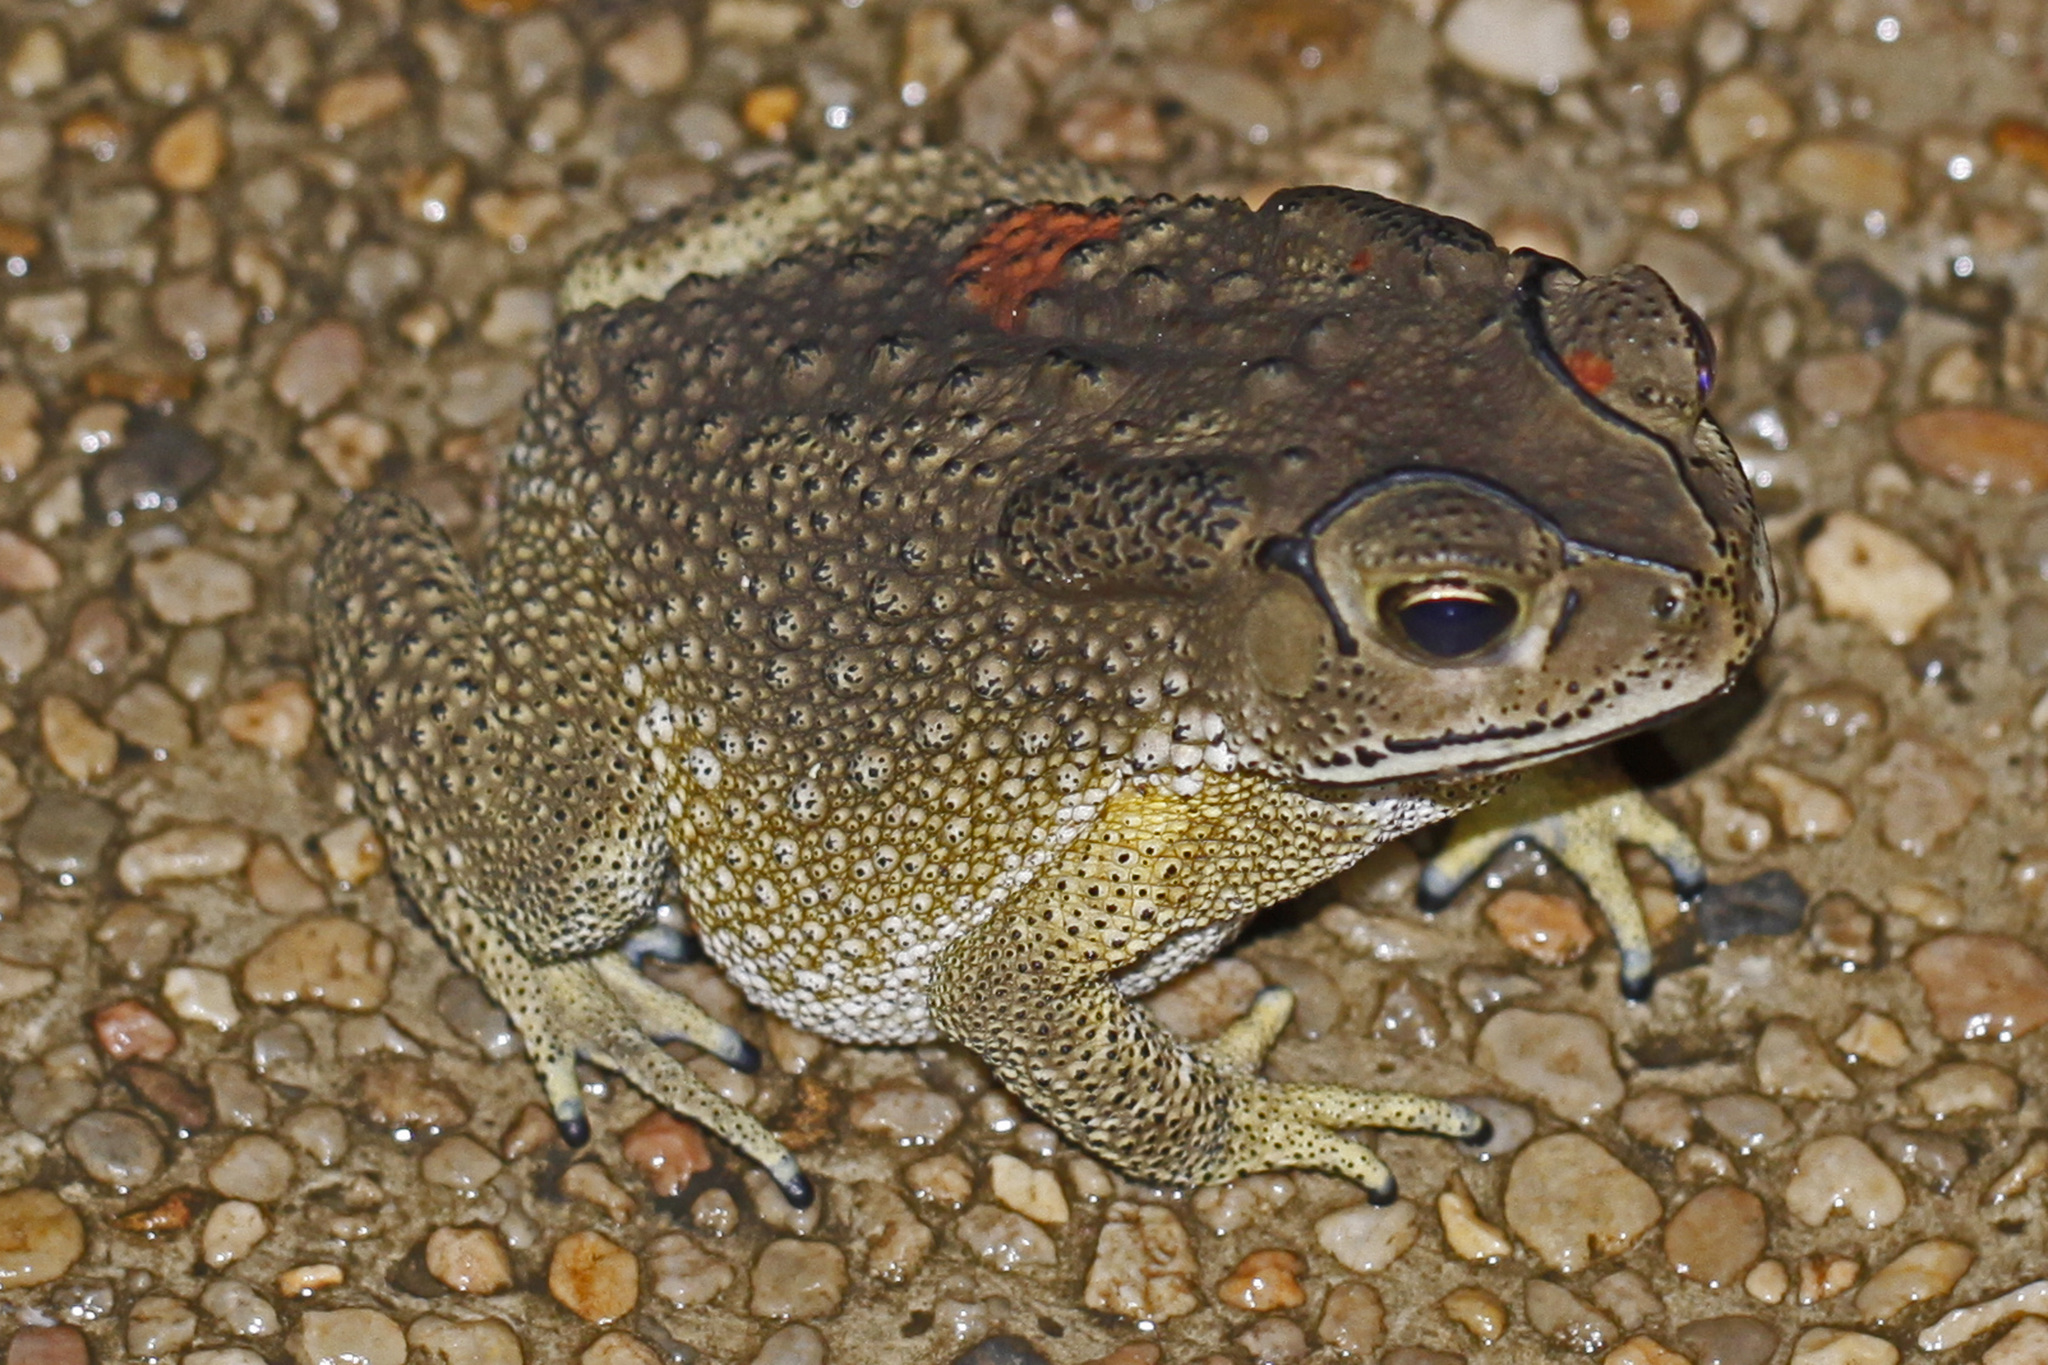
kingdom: Animalia
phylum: Chordata
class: Amphibia
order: Anura
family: Bufonidae
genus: Duttaphrynus
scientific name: Duttaphrynus melanostictus
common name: Common sunda toad
